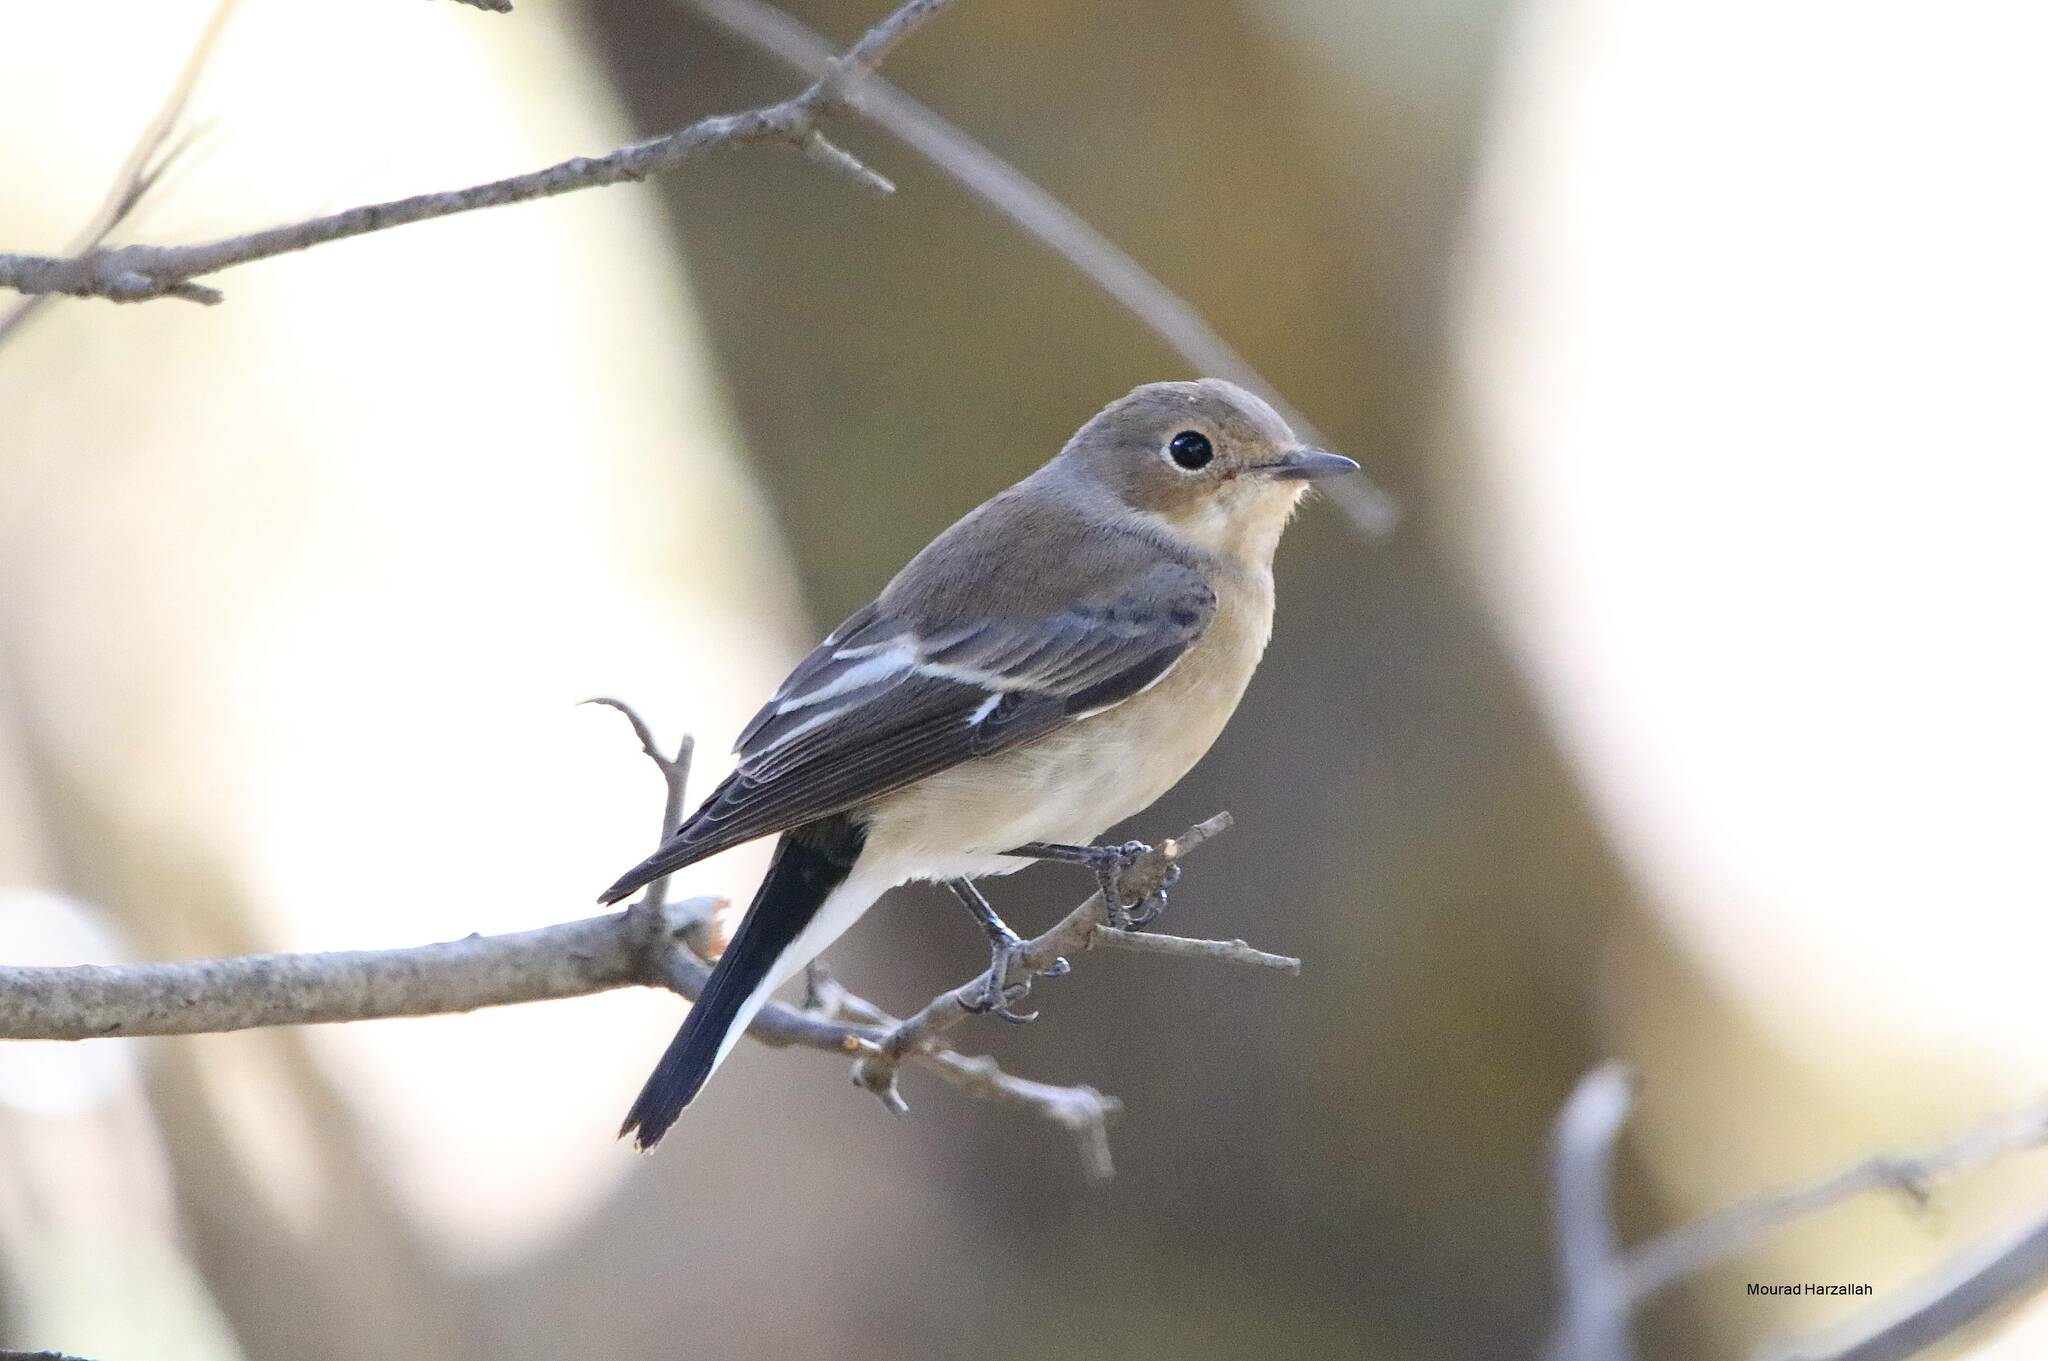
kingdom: Animalia
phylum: Chordata
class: Aves
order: Passeriformes
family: Muscicapidae
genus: Ficedula
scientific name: Ficedula speculigera
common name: Atlas pied flycatcher
